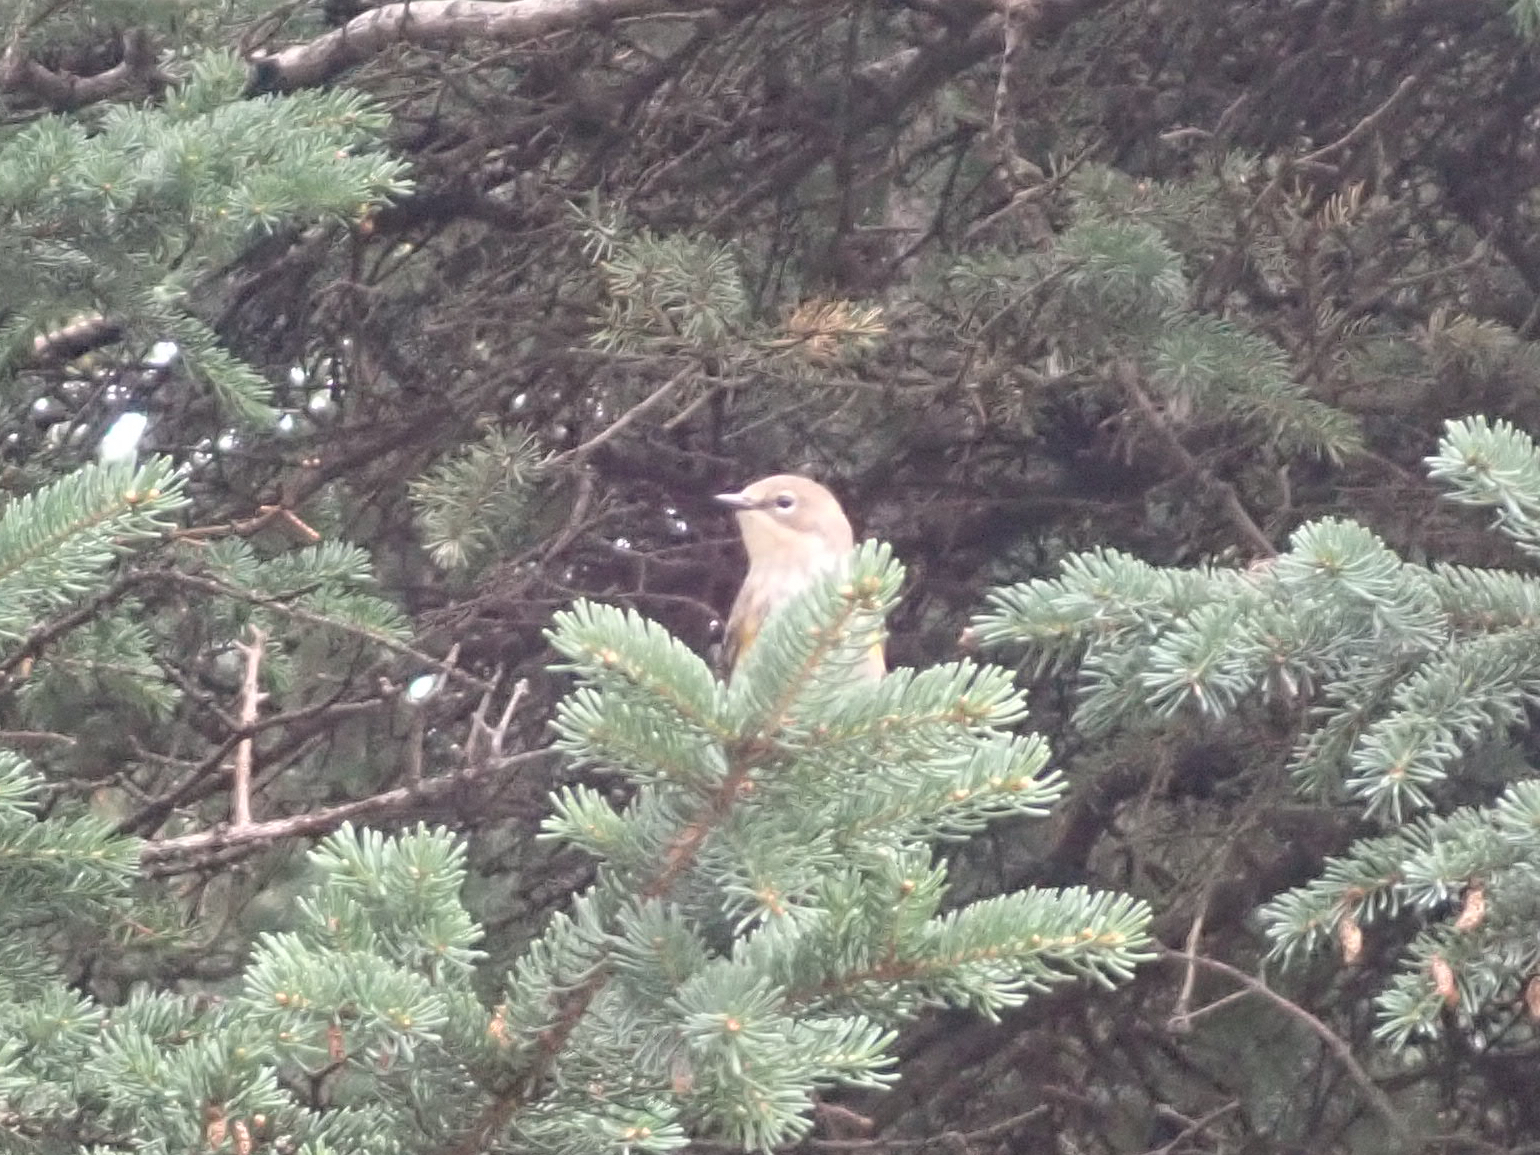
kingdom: Animalia
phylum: Chordata
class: Aves
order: Passeriformes
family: Parulidae
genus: Setophaga
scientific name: Setophaga coronata
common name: Myrtle warbler
